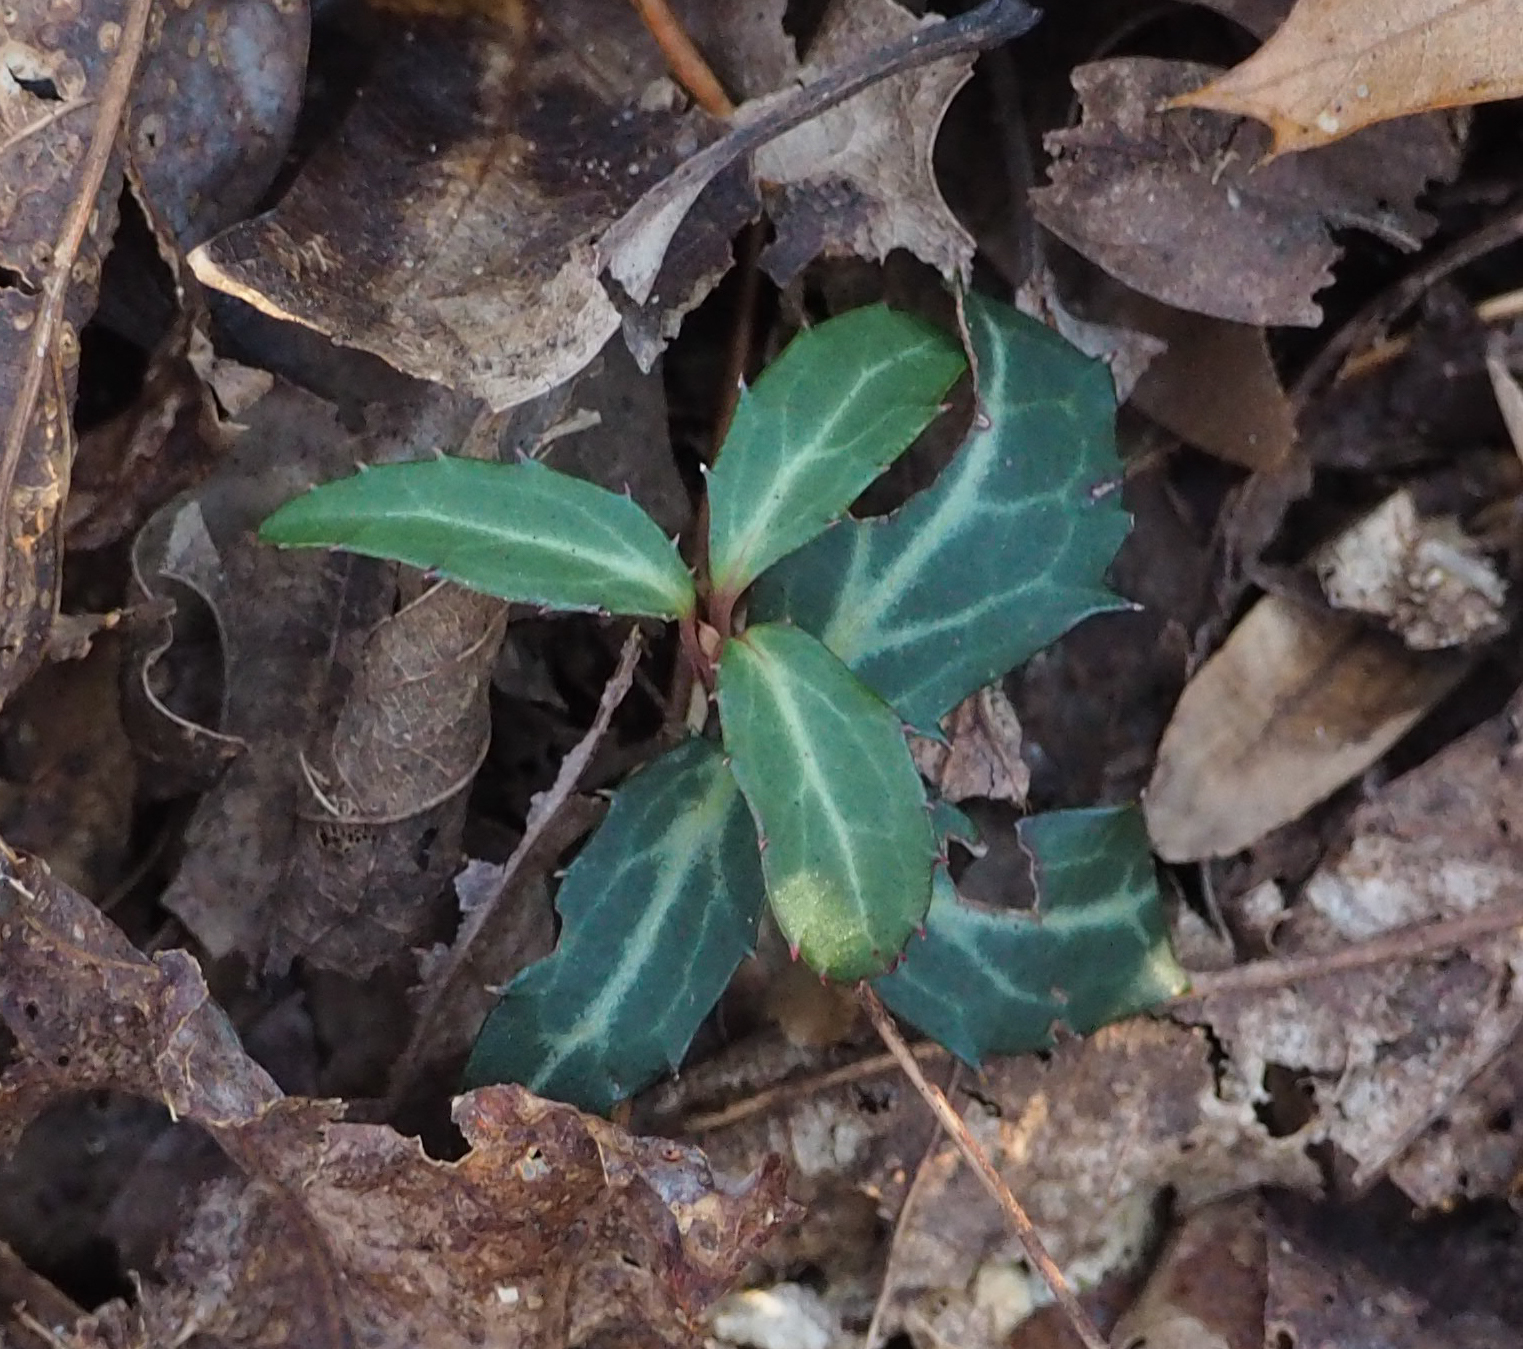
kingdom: Plantae
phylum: Tracheophyta
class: Magnoliopsida
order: Ericales
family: Ericaceae
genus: Chimaphila
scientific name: Chimaphila maculata
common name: Spotted pipsissewa
